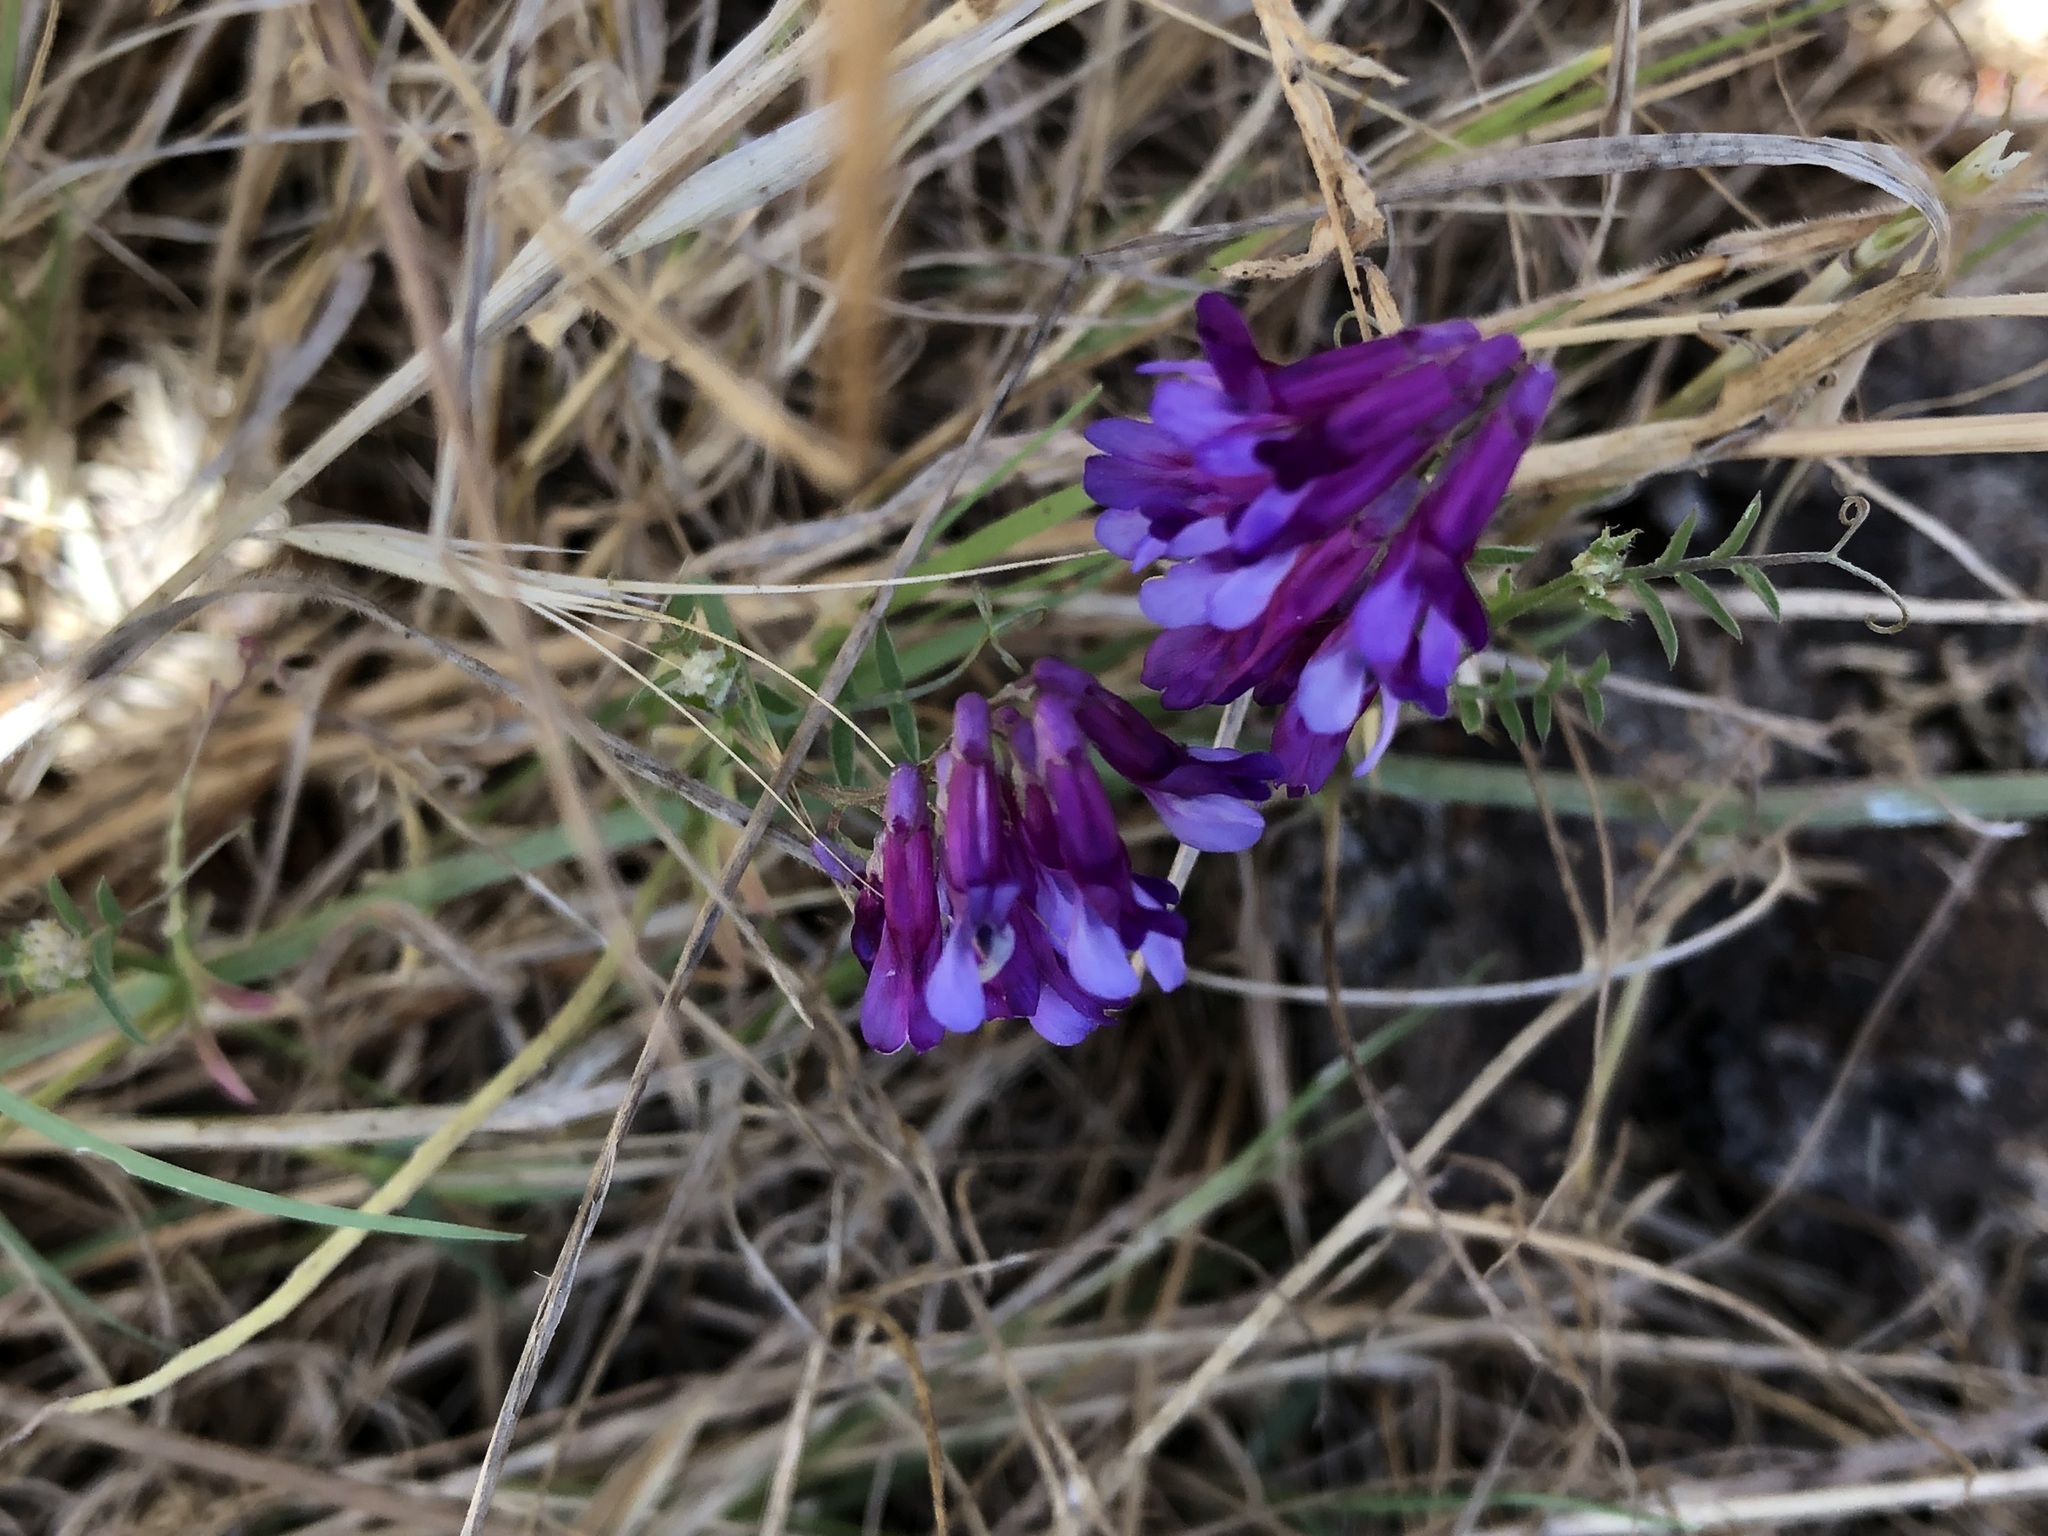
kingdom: Plantae
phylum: Tracheophyta
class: Magnoliopsida
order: Fabales
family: Fabaceae
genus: Vicia
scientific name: Vicia eriocarpa
